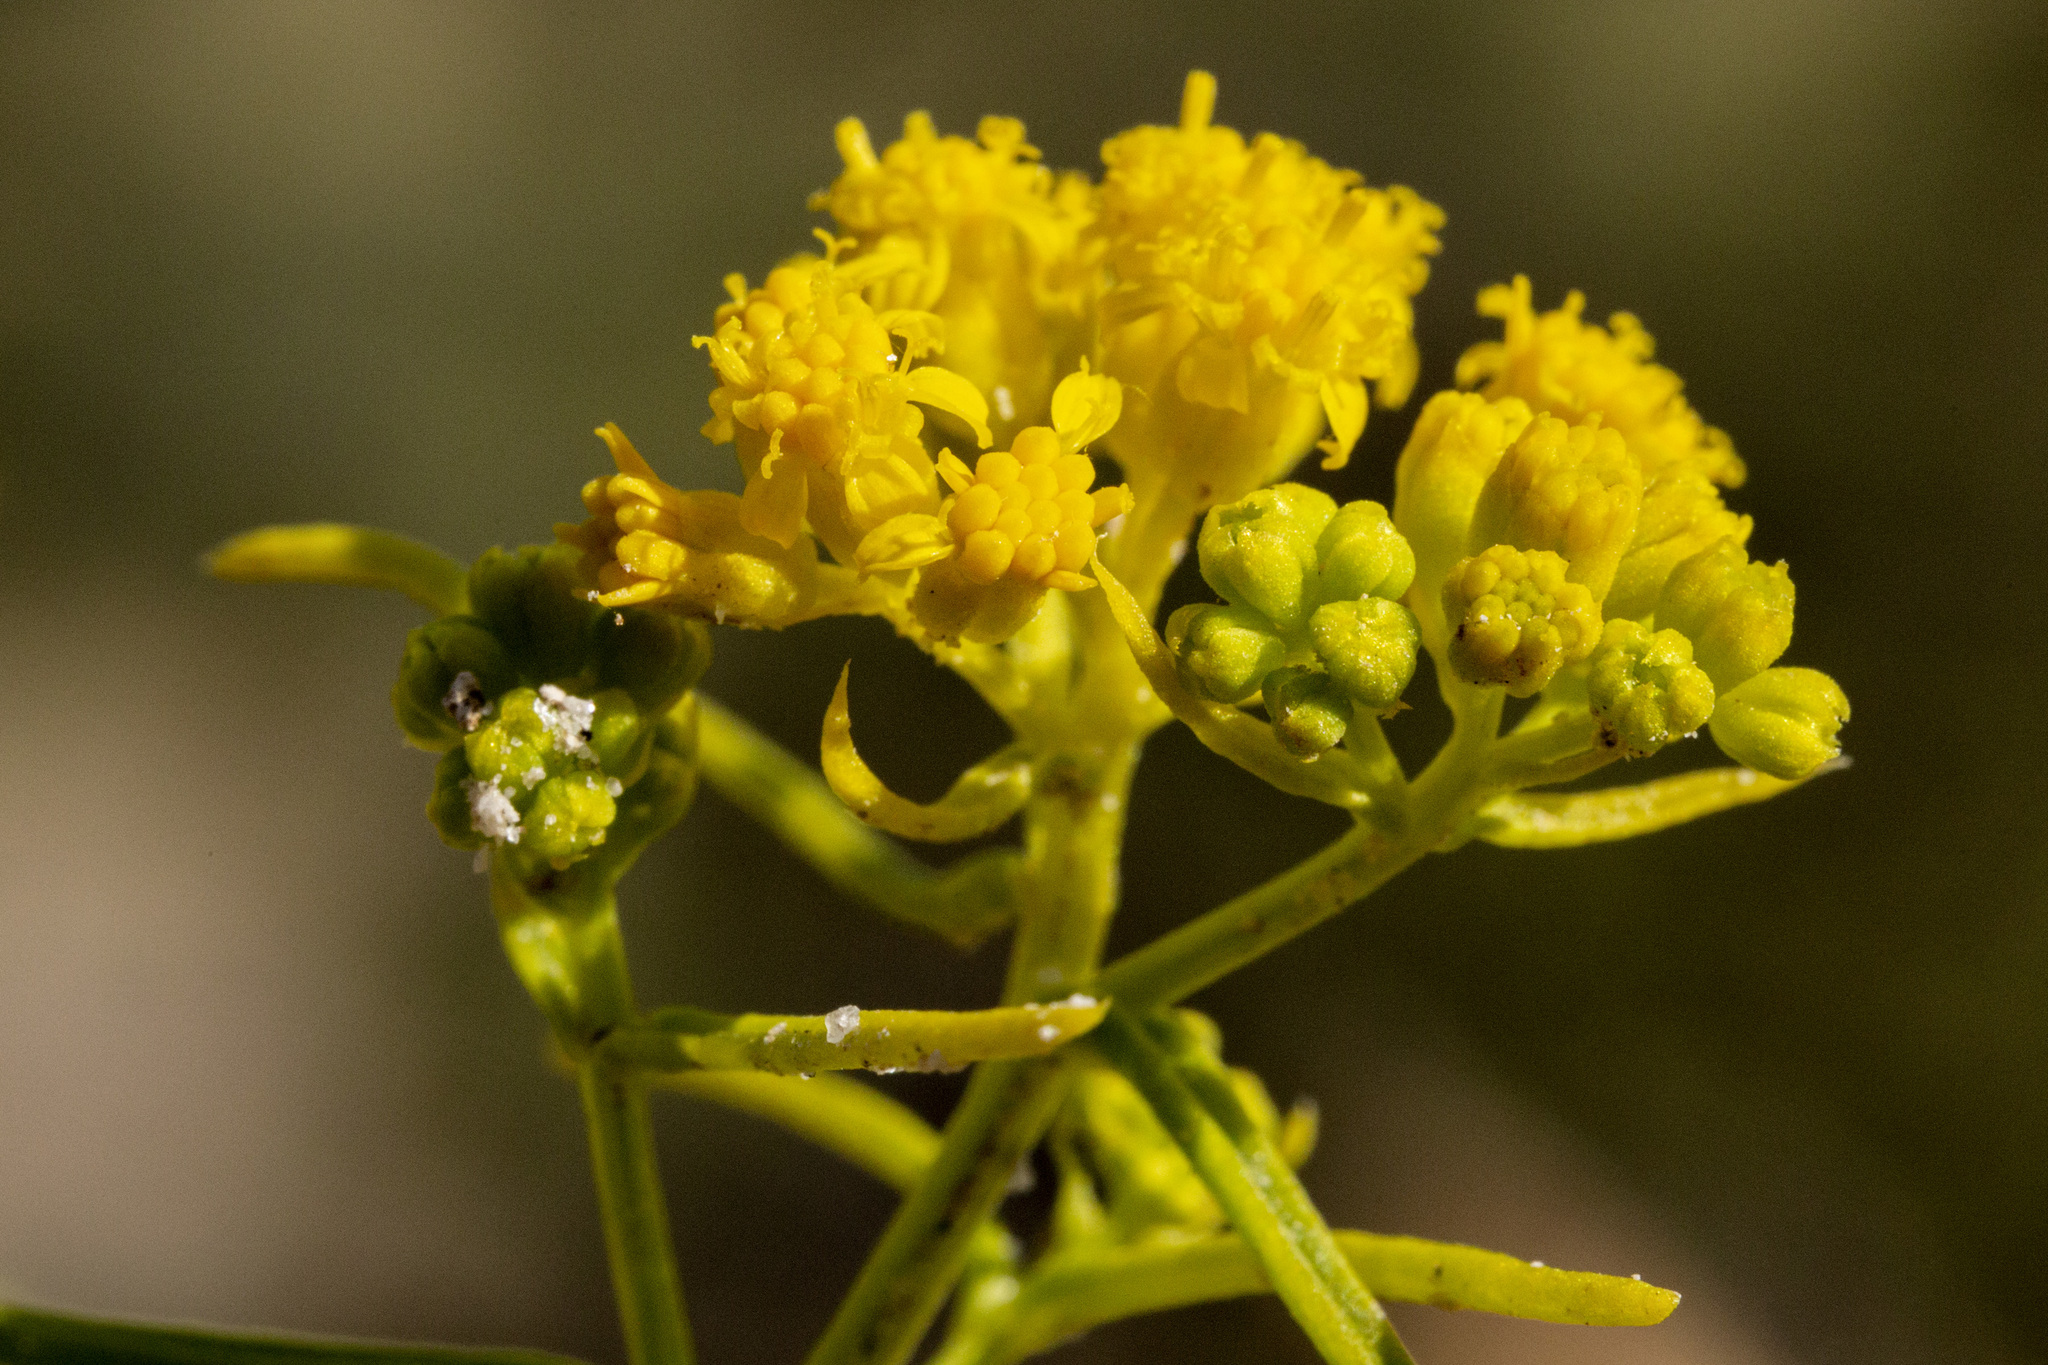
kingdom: Plantae
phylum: Tracheophyta
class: Magnoliopsida
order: Asterales
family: Asteraceae
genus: Sartwellia
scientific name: Sartwellia flaveriae
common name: Sartwellia
